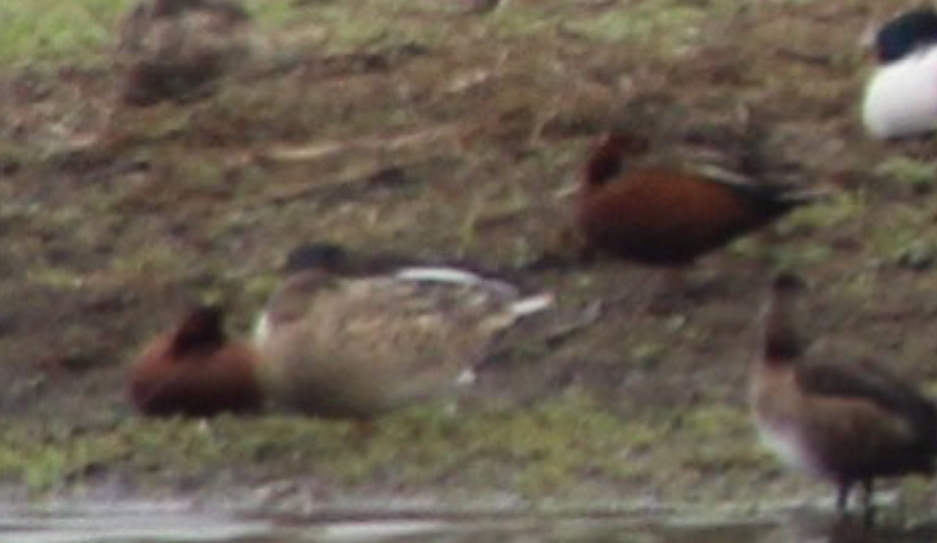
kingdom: Animalia
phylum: Chordata
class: Aves
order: Anseriformes
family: Anatidae
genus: Spatula
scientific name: Spatula cyanoptera
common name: Cinnamon teal
